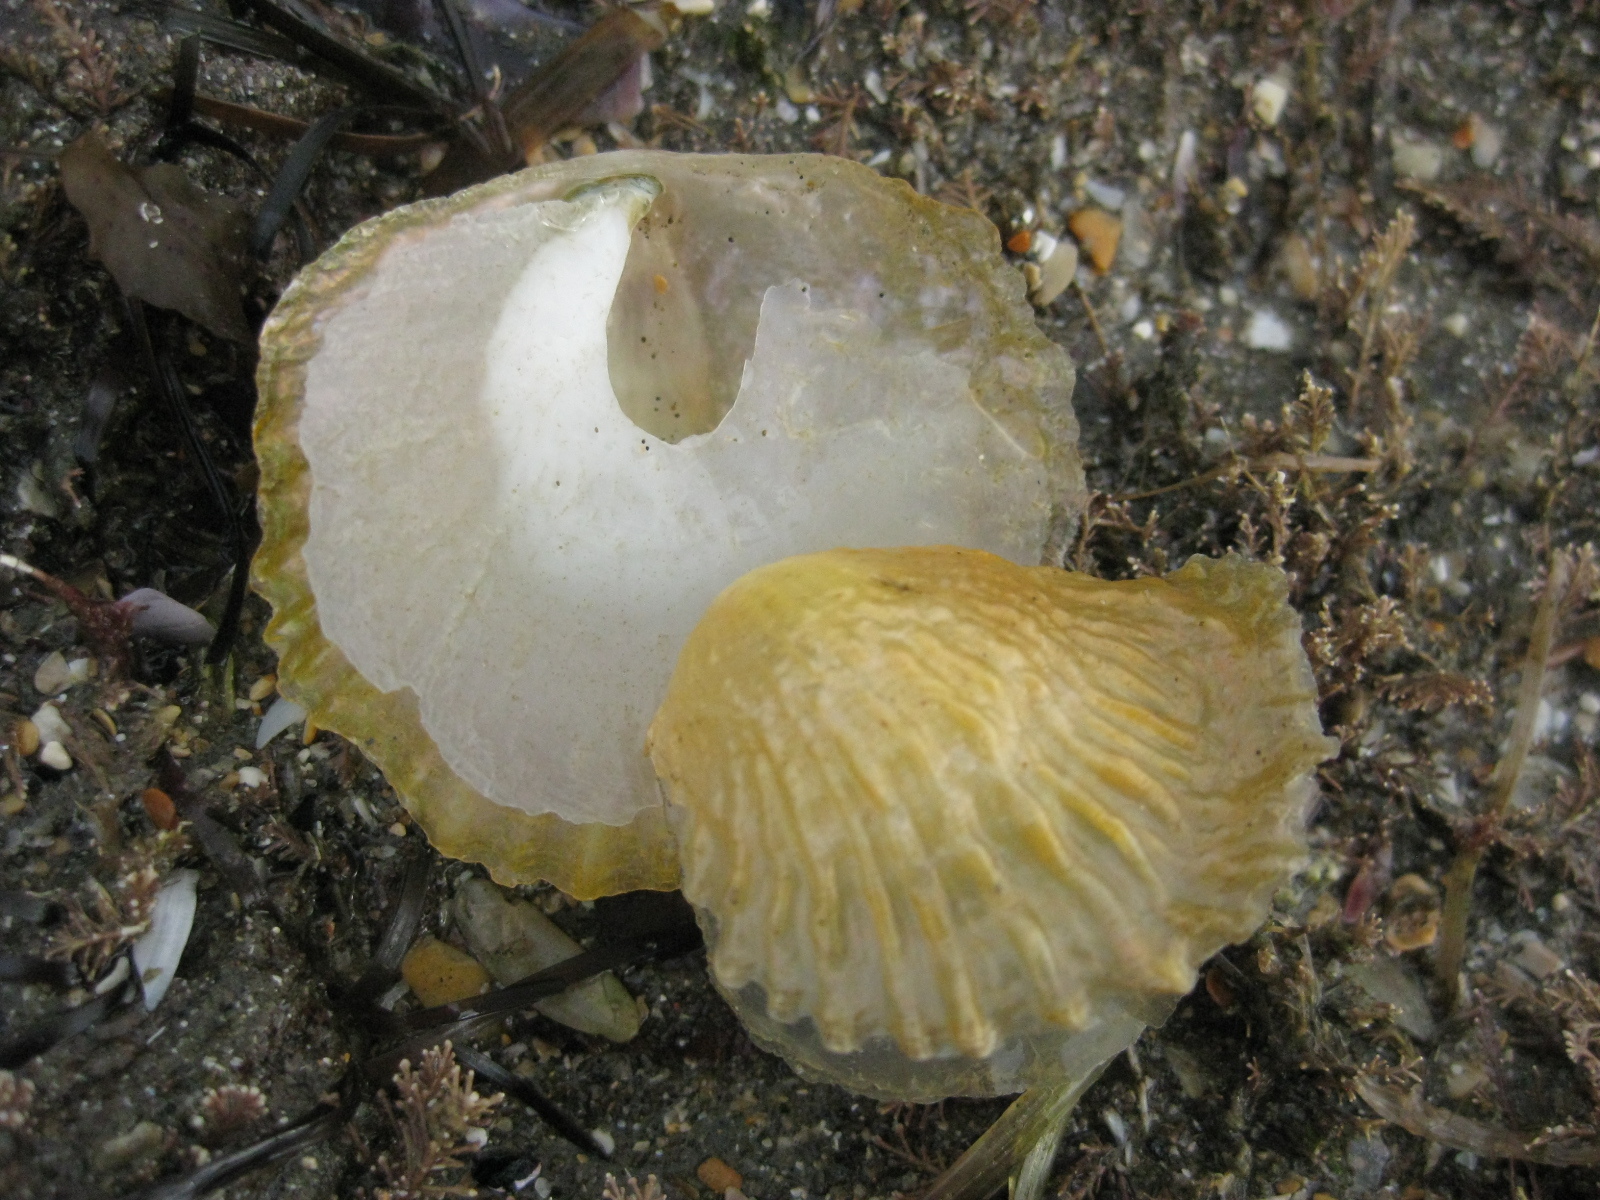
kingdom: Animalia
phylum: Mollusca
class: Bivalvia
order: Pectinida
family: Anomiidae
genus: Anomia
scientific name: Anomia trigonopsis
